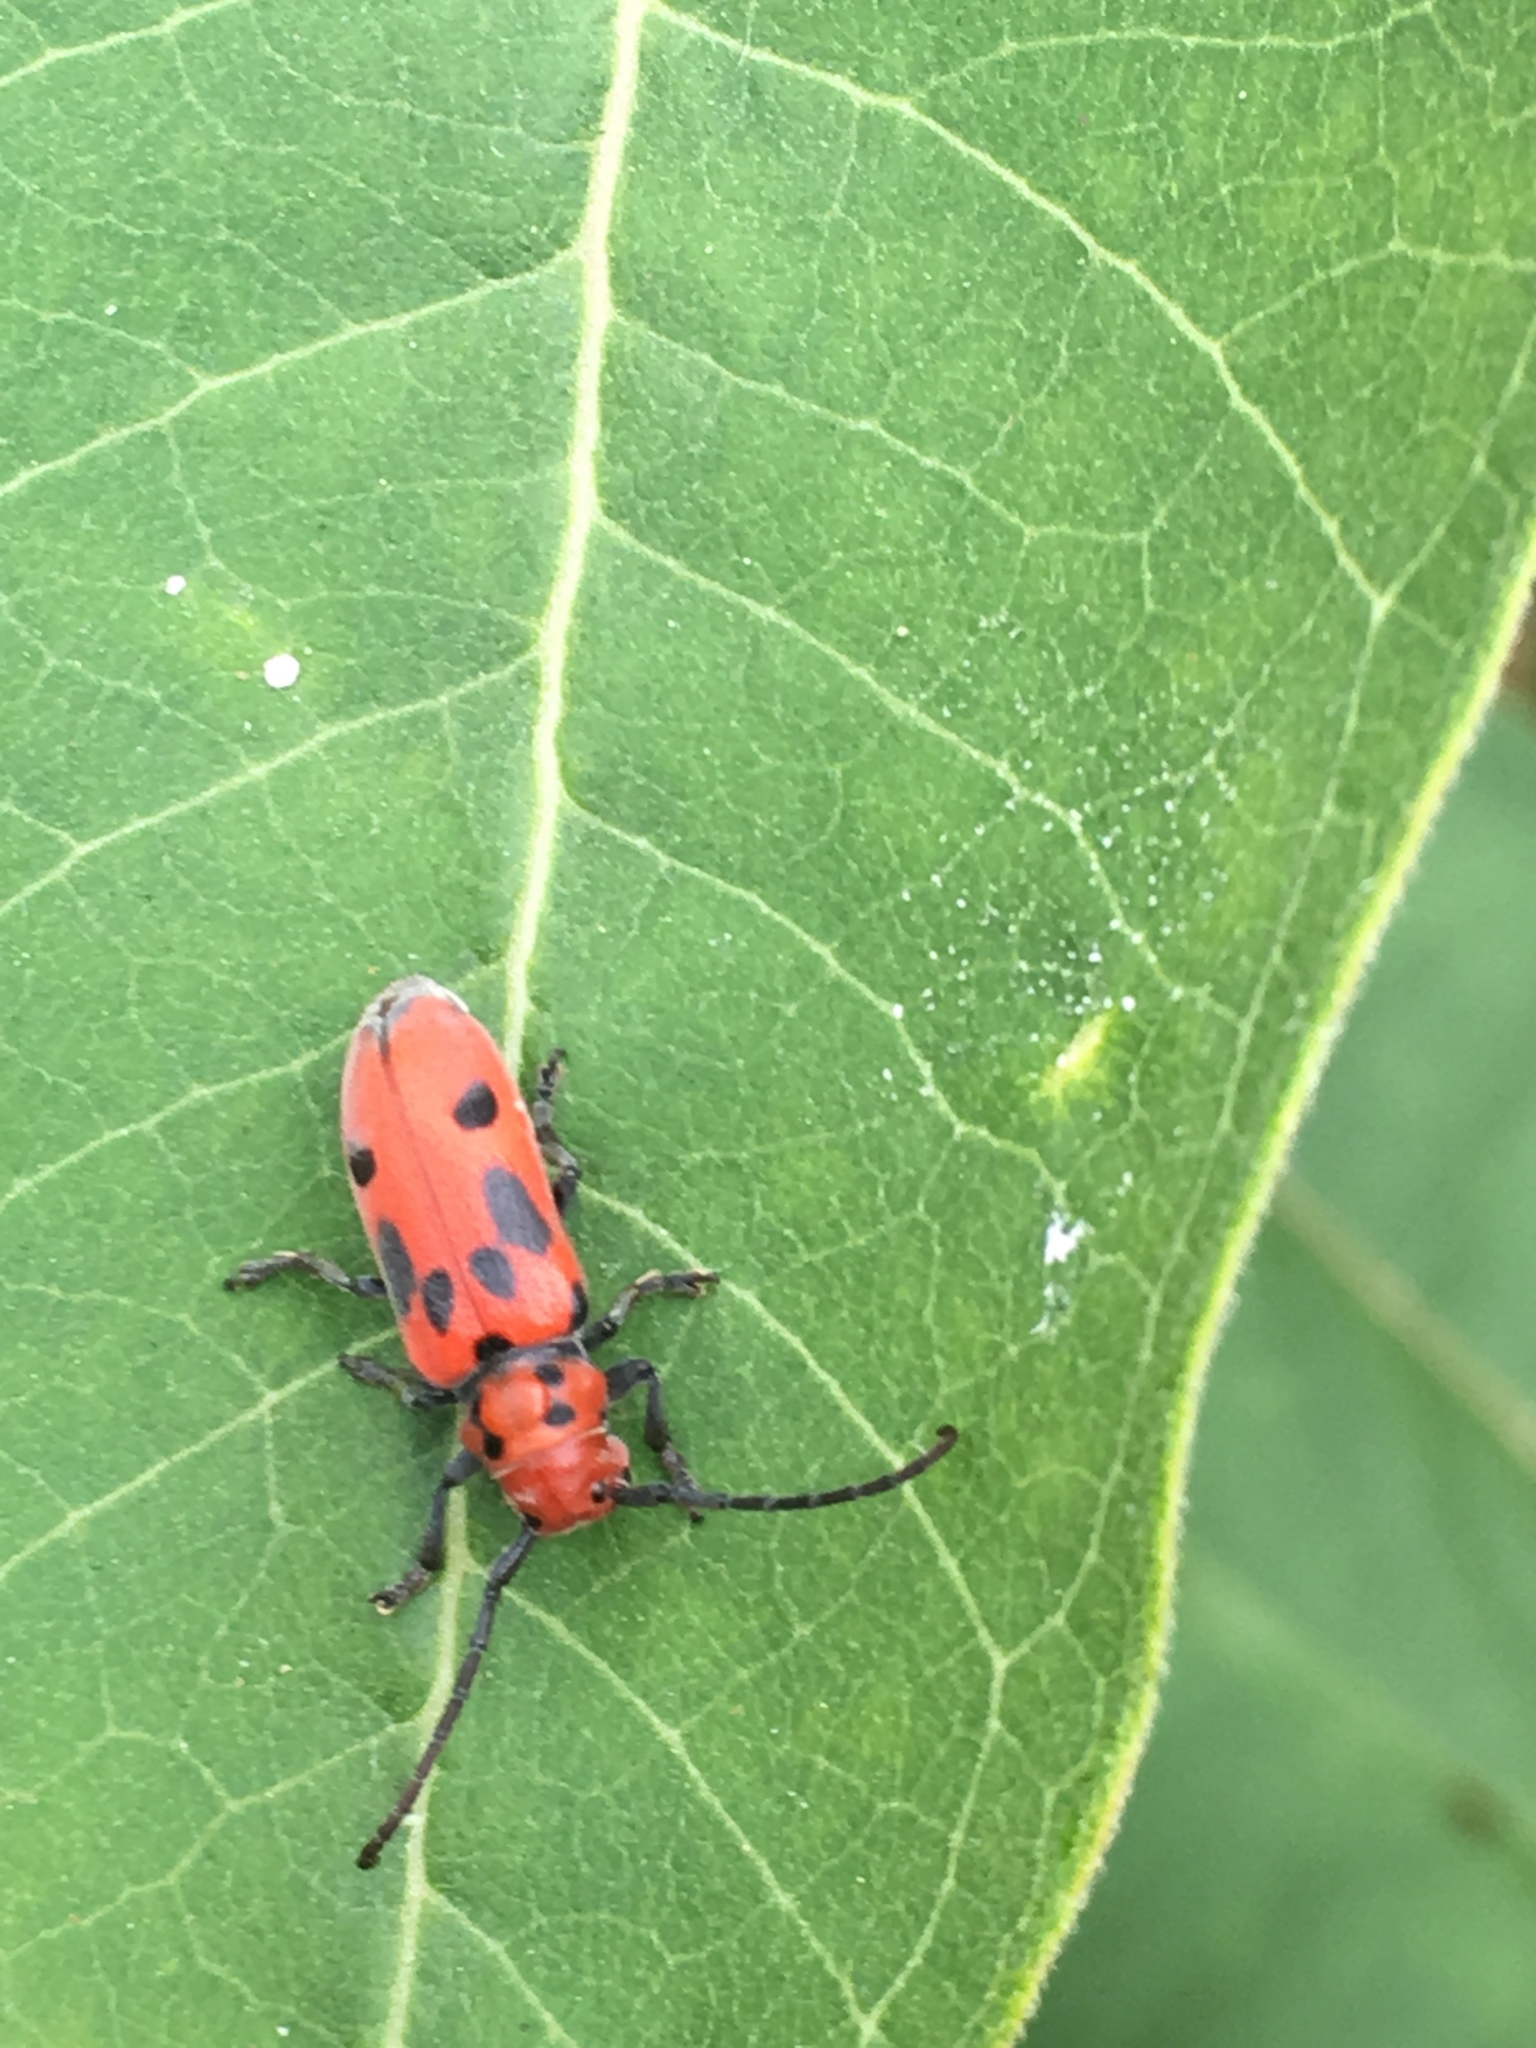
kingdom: Animalia
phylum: Arthropoda
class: Insecta
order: Coleoptera
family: Cerambycidae
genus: Tetraopes
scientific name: Tetraopes tetrophthalmus
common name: Red milkweed beetle
